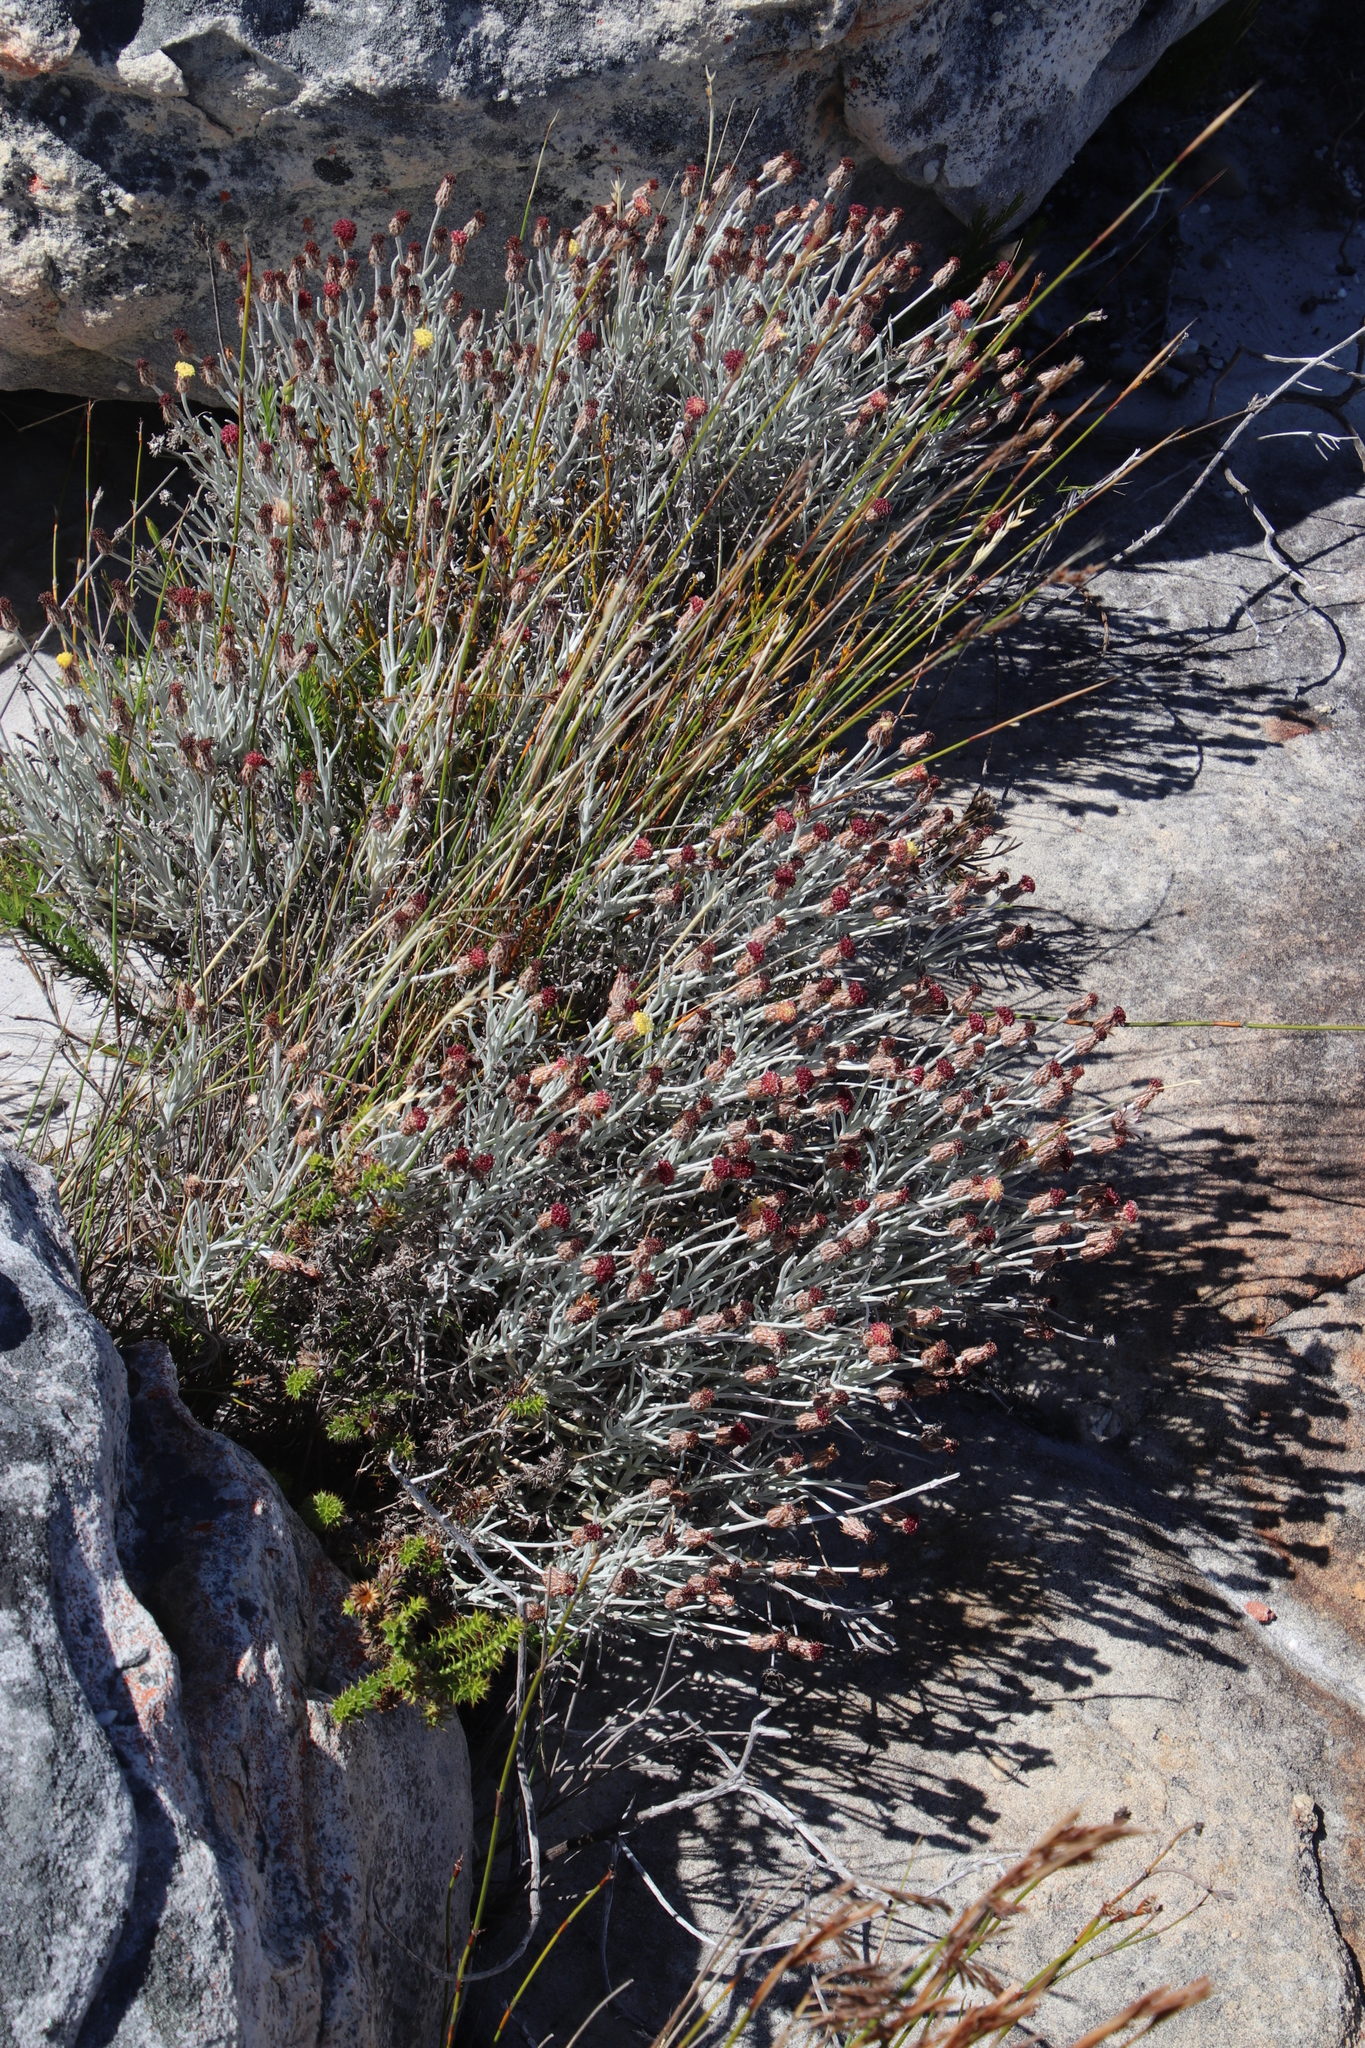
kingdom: Plantae
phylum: Tracheophyta
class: Magnoliopsida
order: Asterales
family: Asteraceae
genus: Syncarpha
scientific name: Syncarpha gnaphaloides
